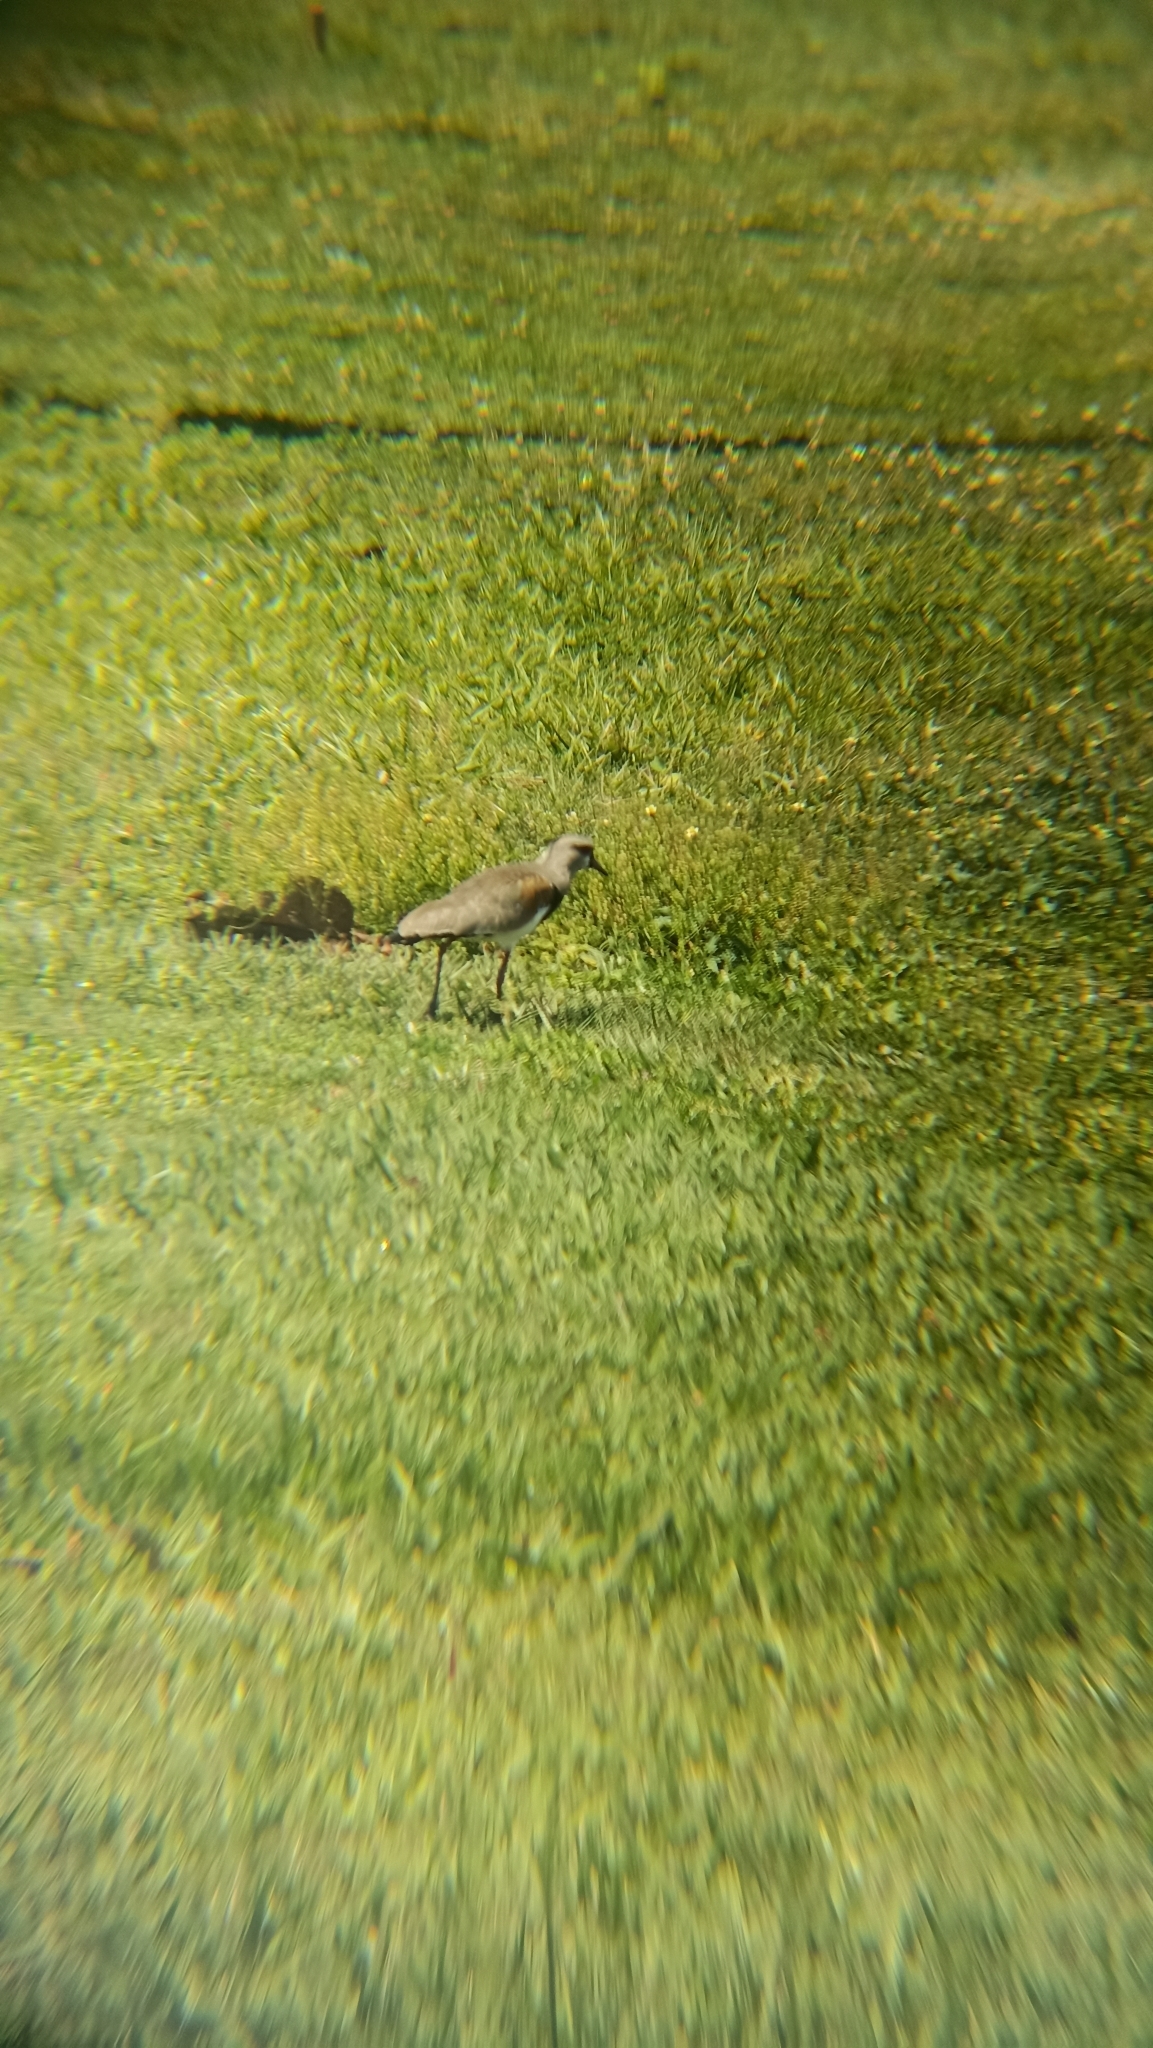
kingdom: Animalia
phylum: Chordata
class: Aves
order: Charadriiformes
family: Charadriidae
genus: Vanellus
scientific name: Vanellus chilensis
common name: Southern lapwing
